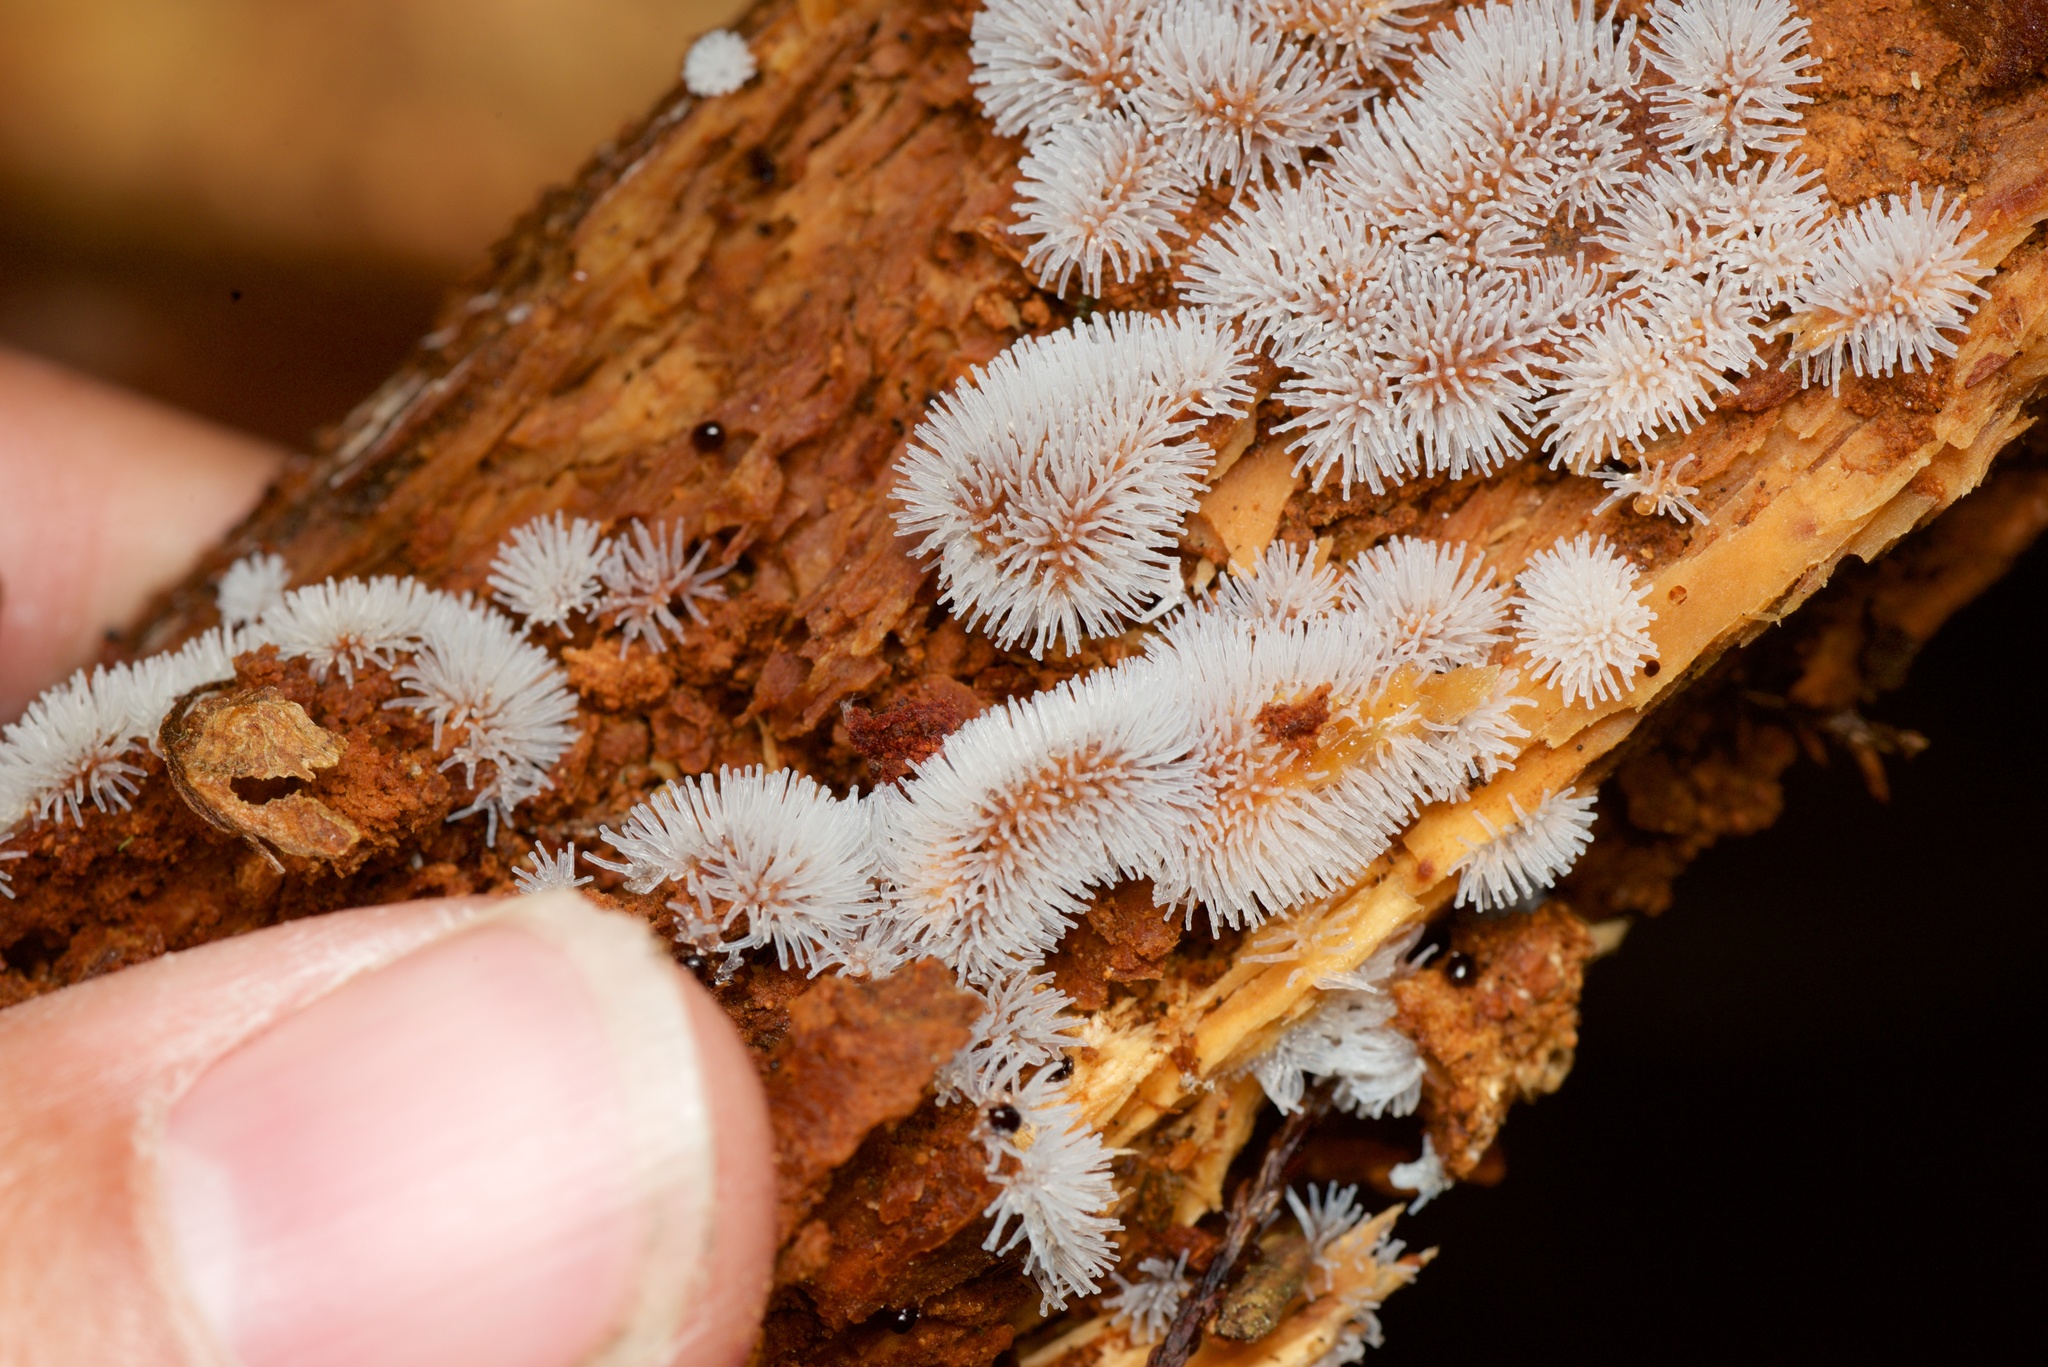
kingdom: Protozoa
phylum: Mycetozoa
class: Protosteliomycetes
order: Ceratiomyxales
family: Ceratiomyxaceae
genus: Ceratiomyxa
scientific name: Ceratiomyxa fruticulosa
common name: Honeycomb coral slime mold
